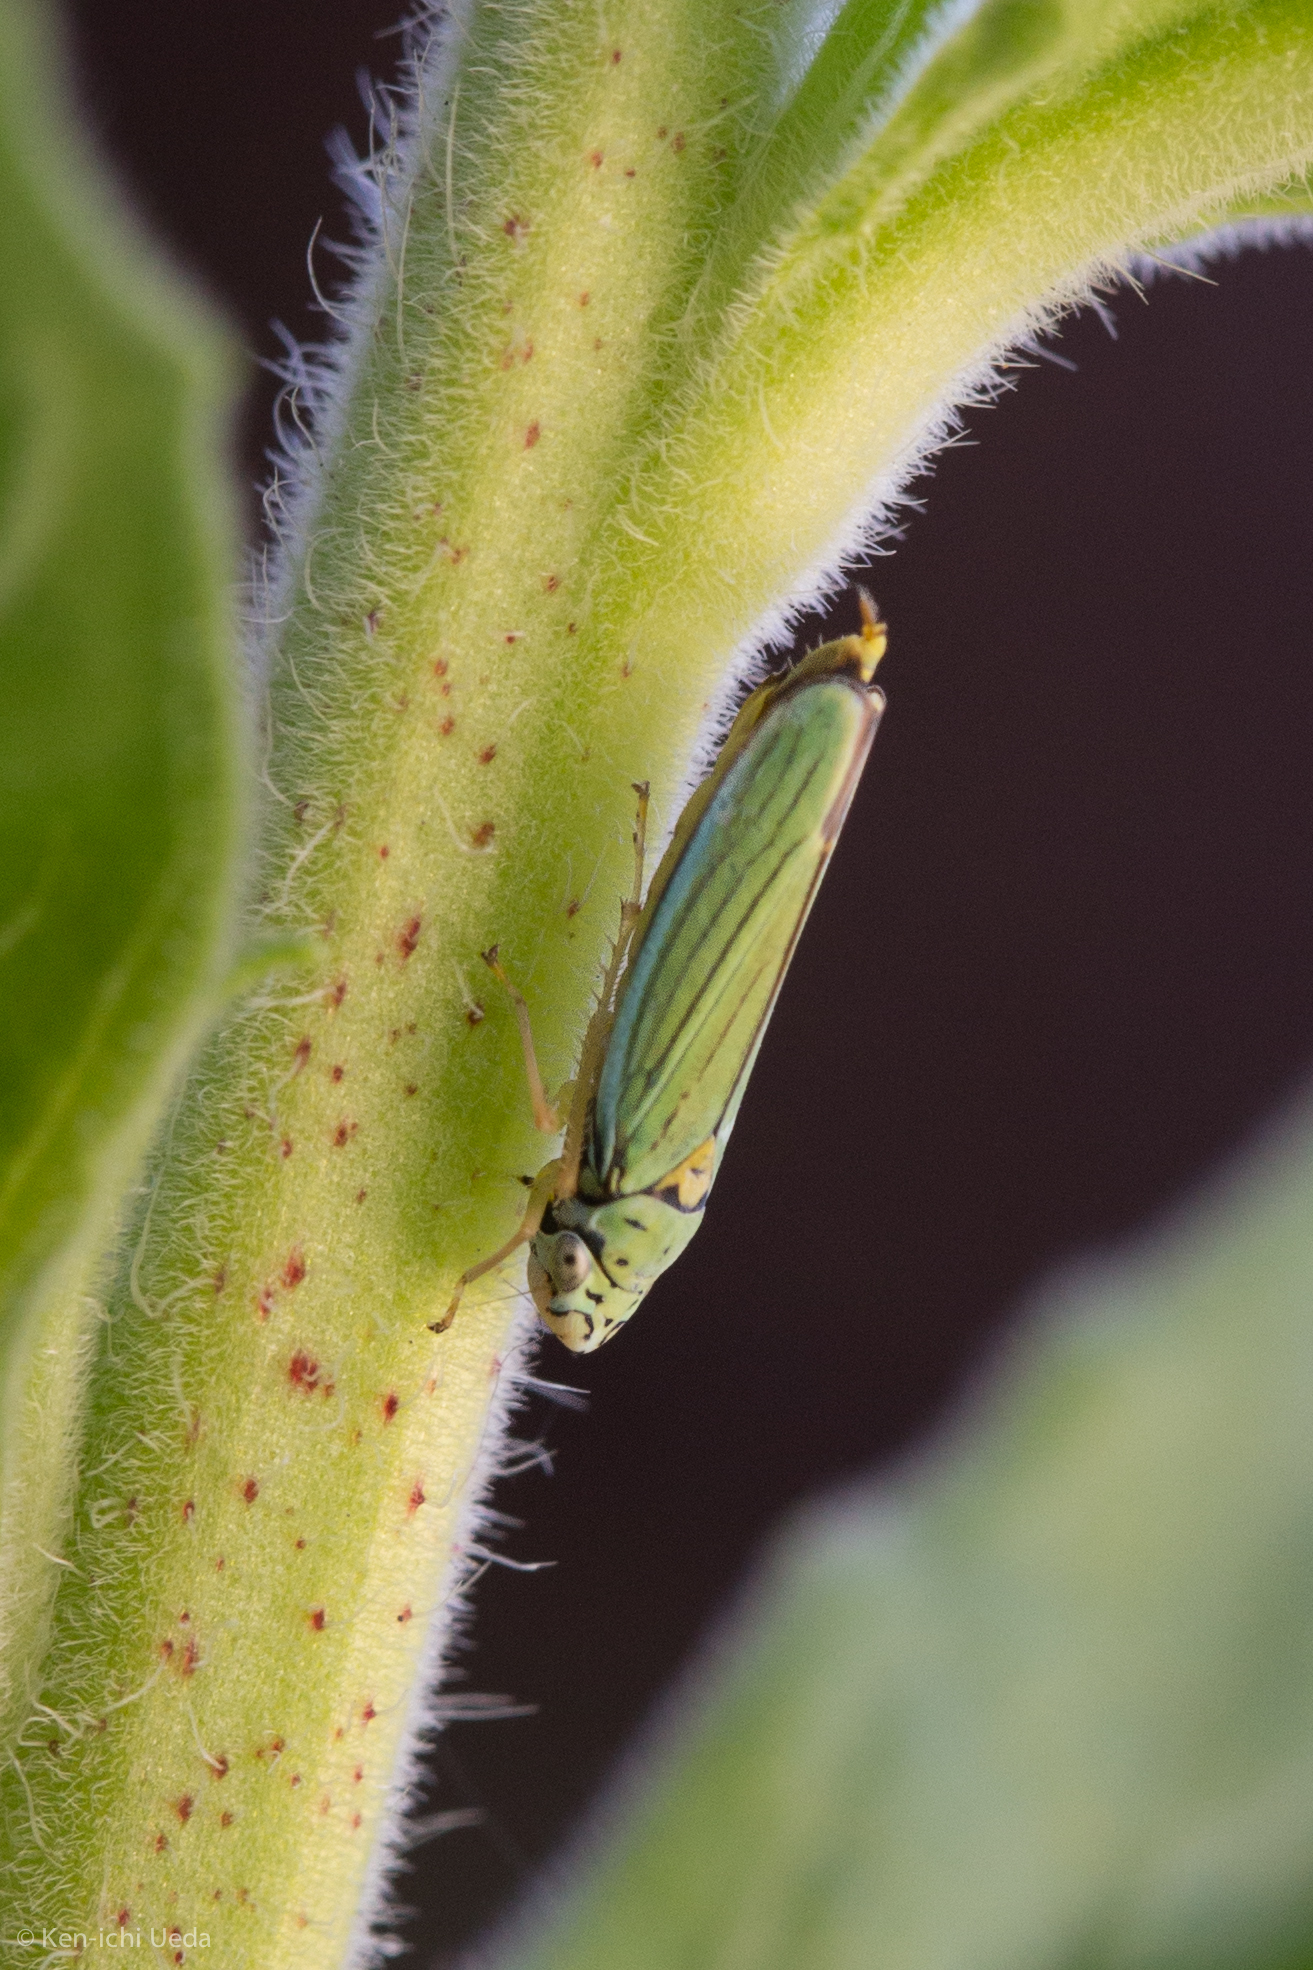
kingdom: Animalia
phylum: Arthropoda
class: Insecta
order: Hemiptera
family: Cicadellidae
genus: Graphocephala
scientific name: Graphocephala atropunctata
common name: Blue-green sharpshooter
